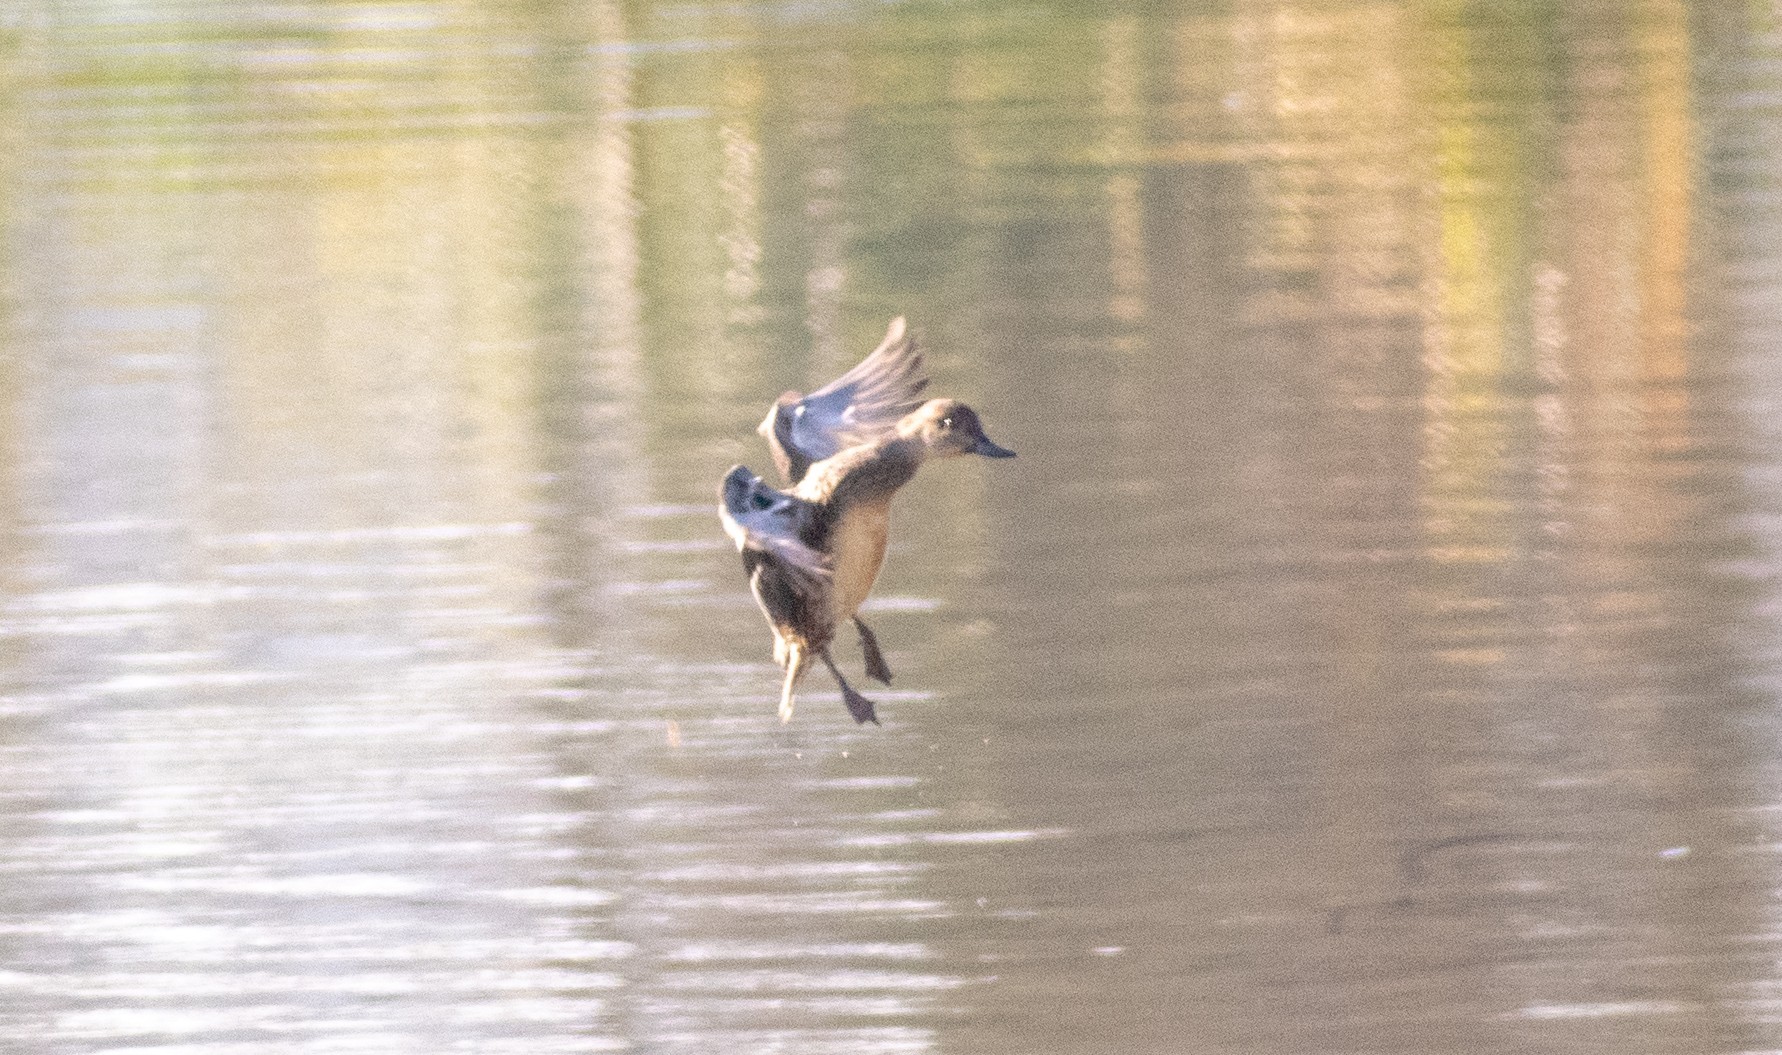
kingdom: Animalia
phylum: Chordata
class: Aves
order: Anseriformes
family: Anatidae
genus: Netta
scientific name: Netta rufina
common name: Red-crested pochard
